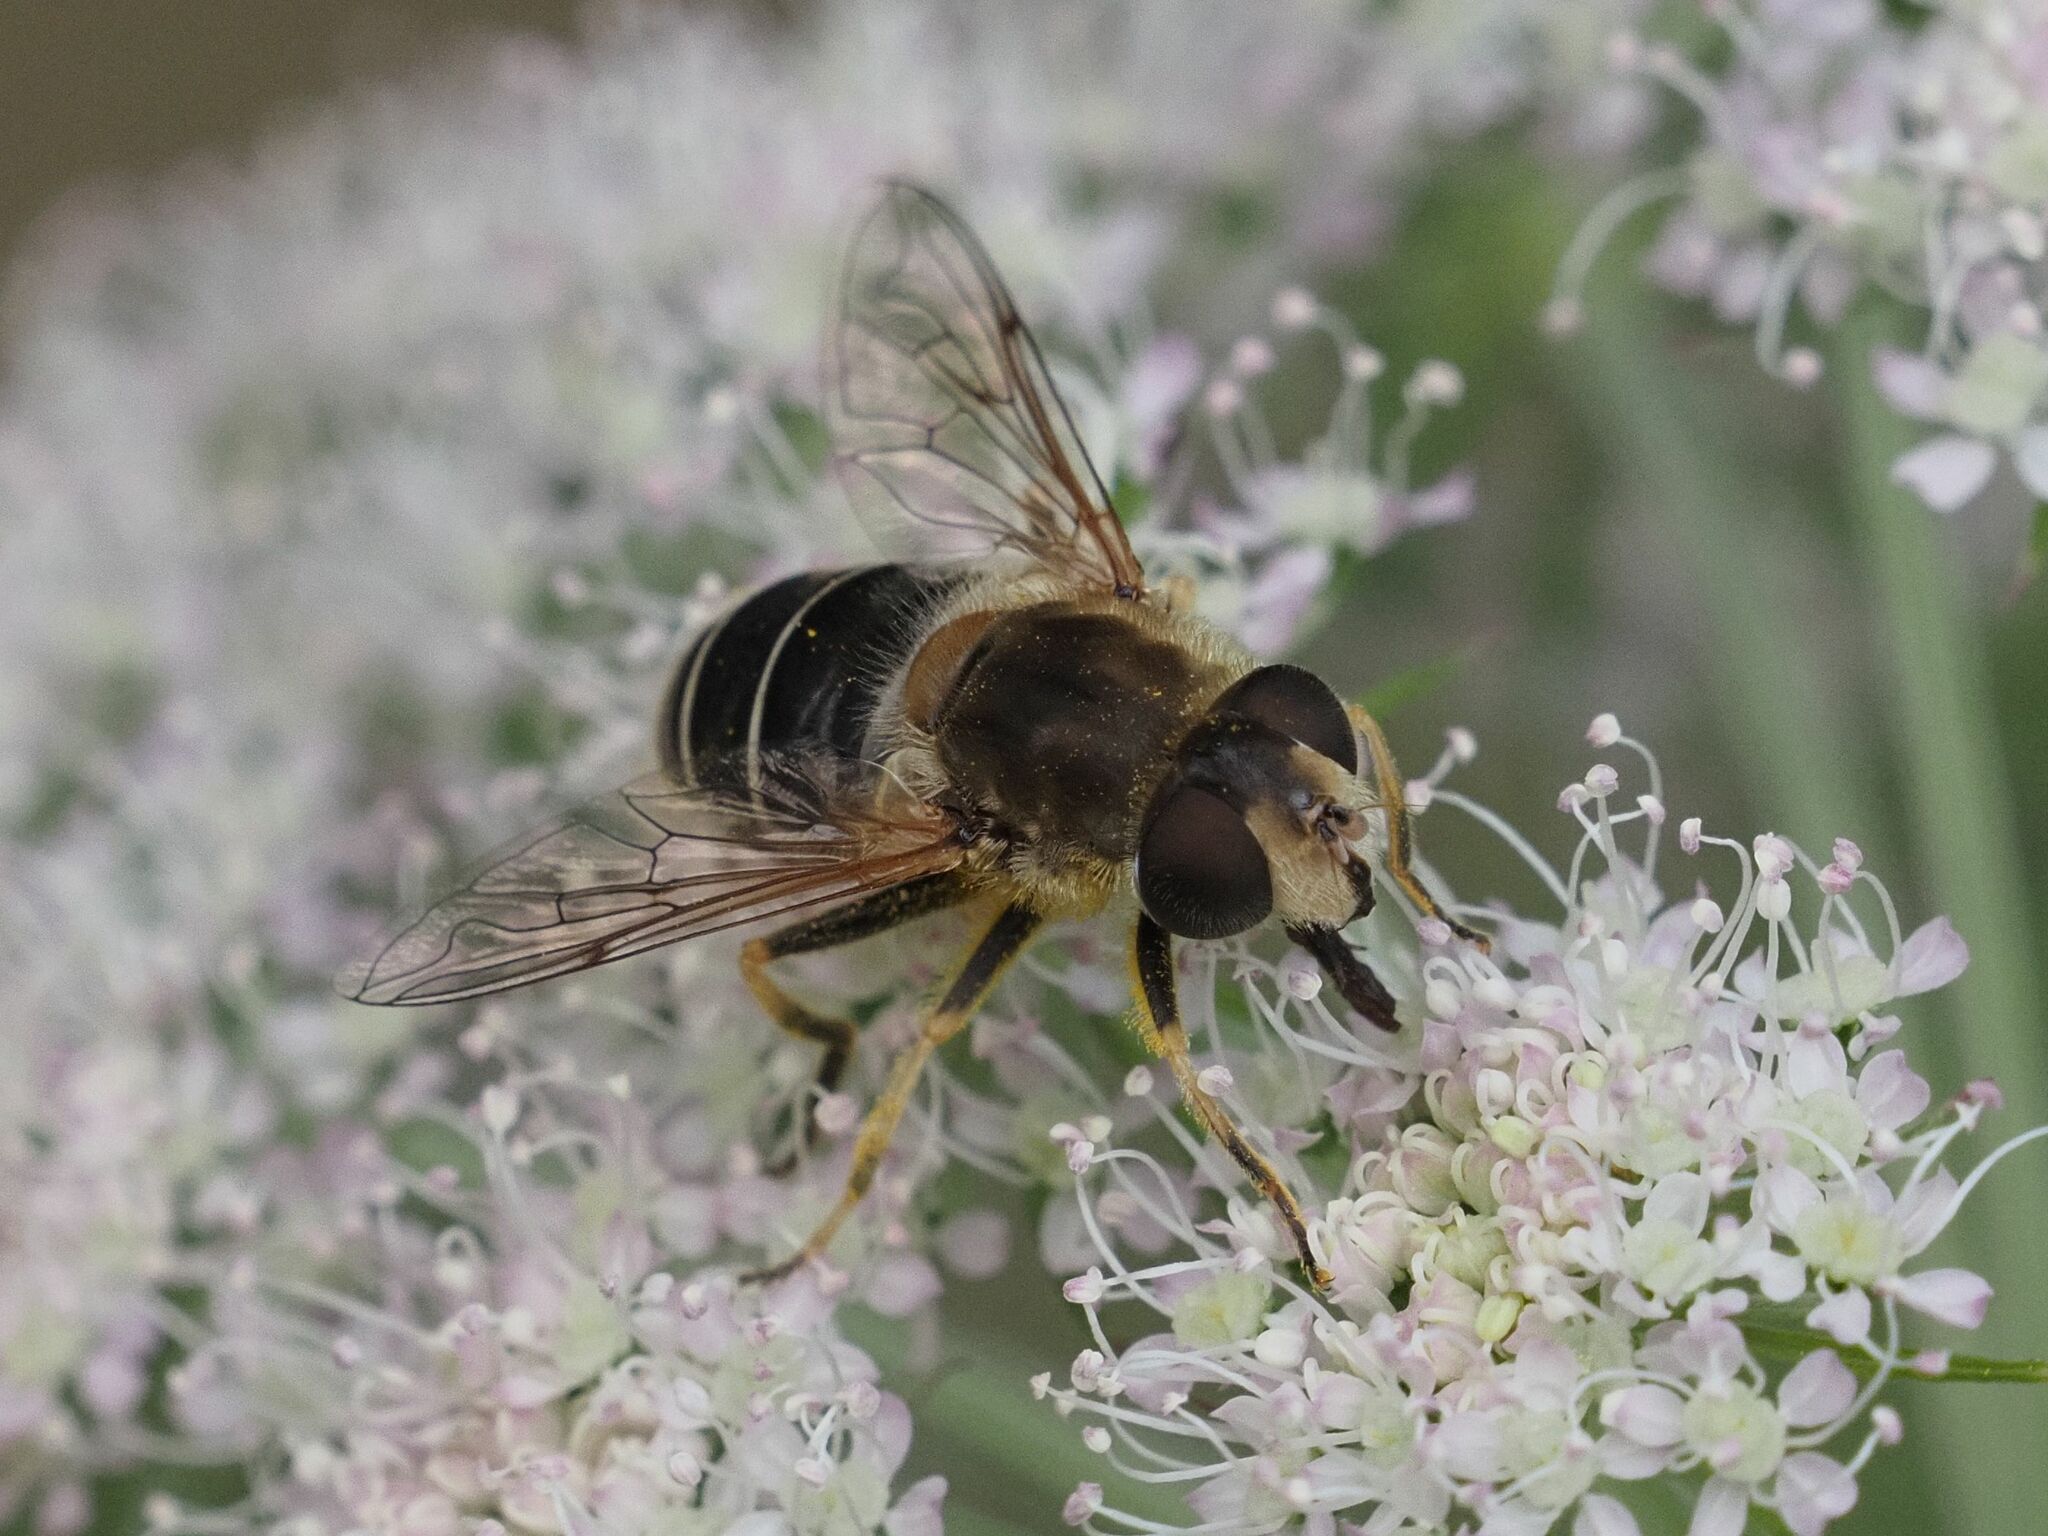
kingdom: Animalia
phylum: Arthropoda
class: Insecta
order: Diptera
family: Syrphidae
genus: Eristalis
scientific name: Eristalis nemorum
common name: Orange-spined drone fly
